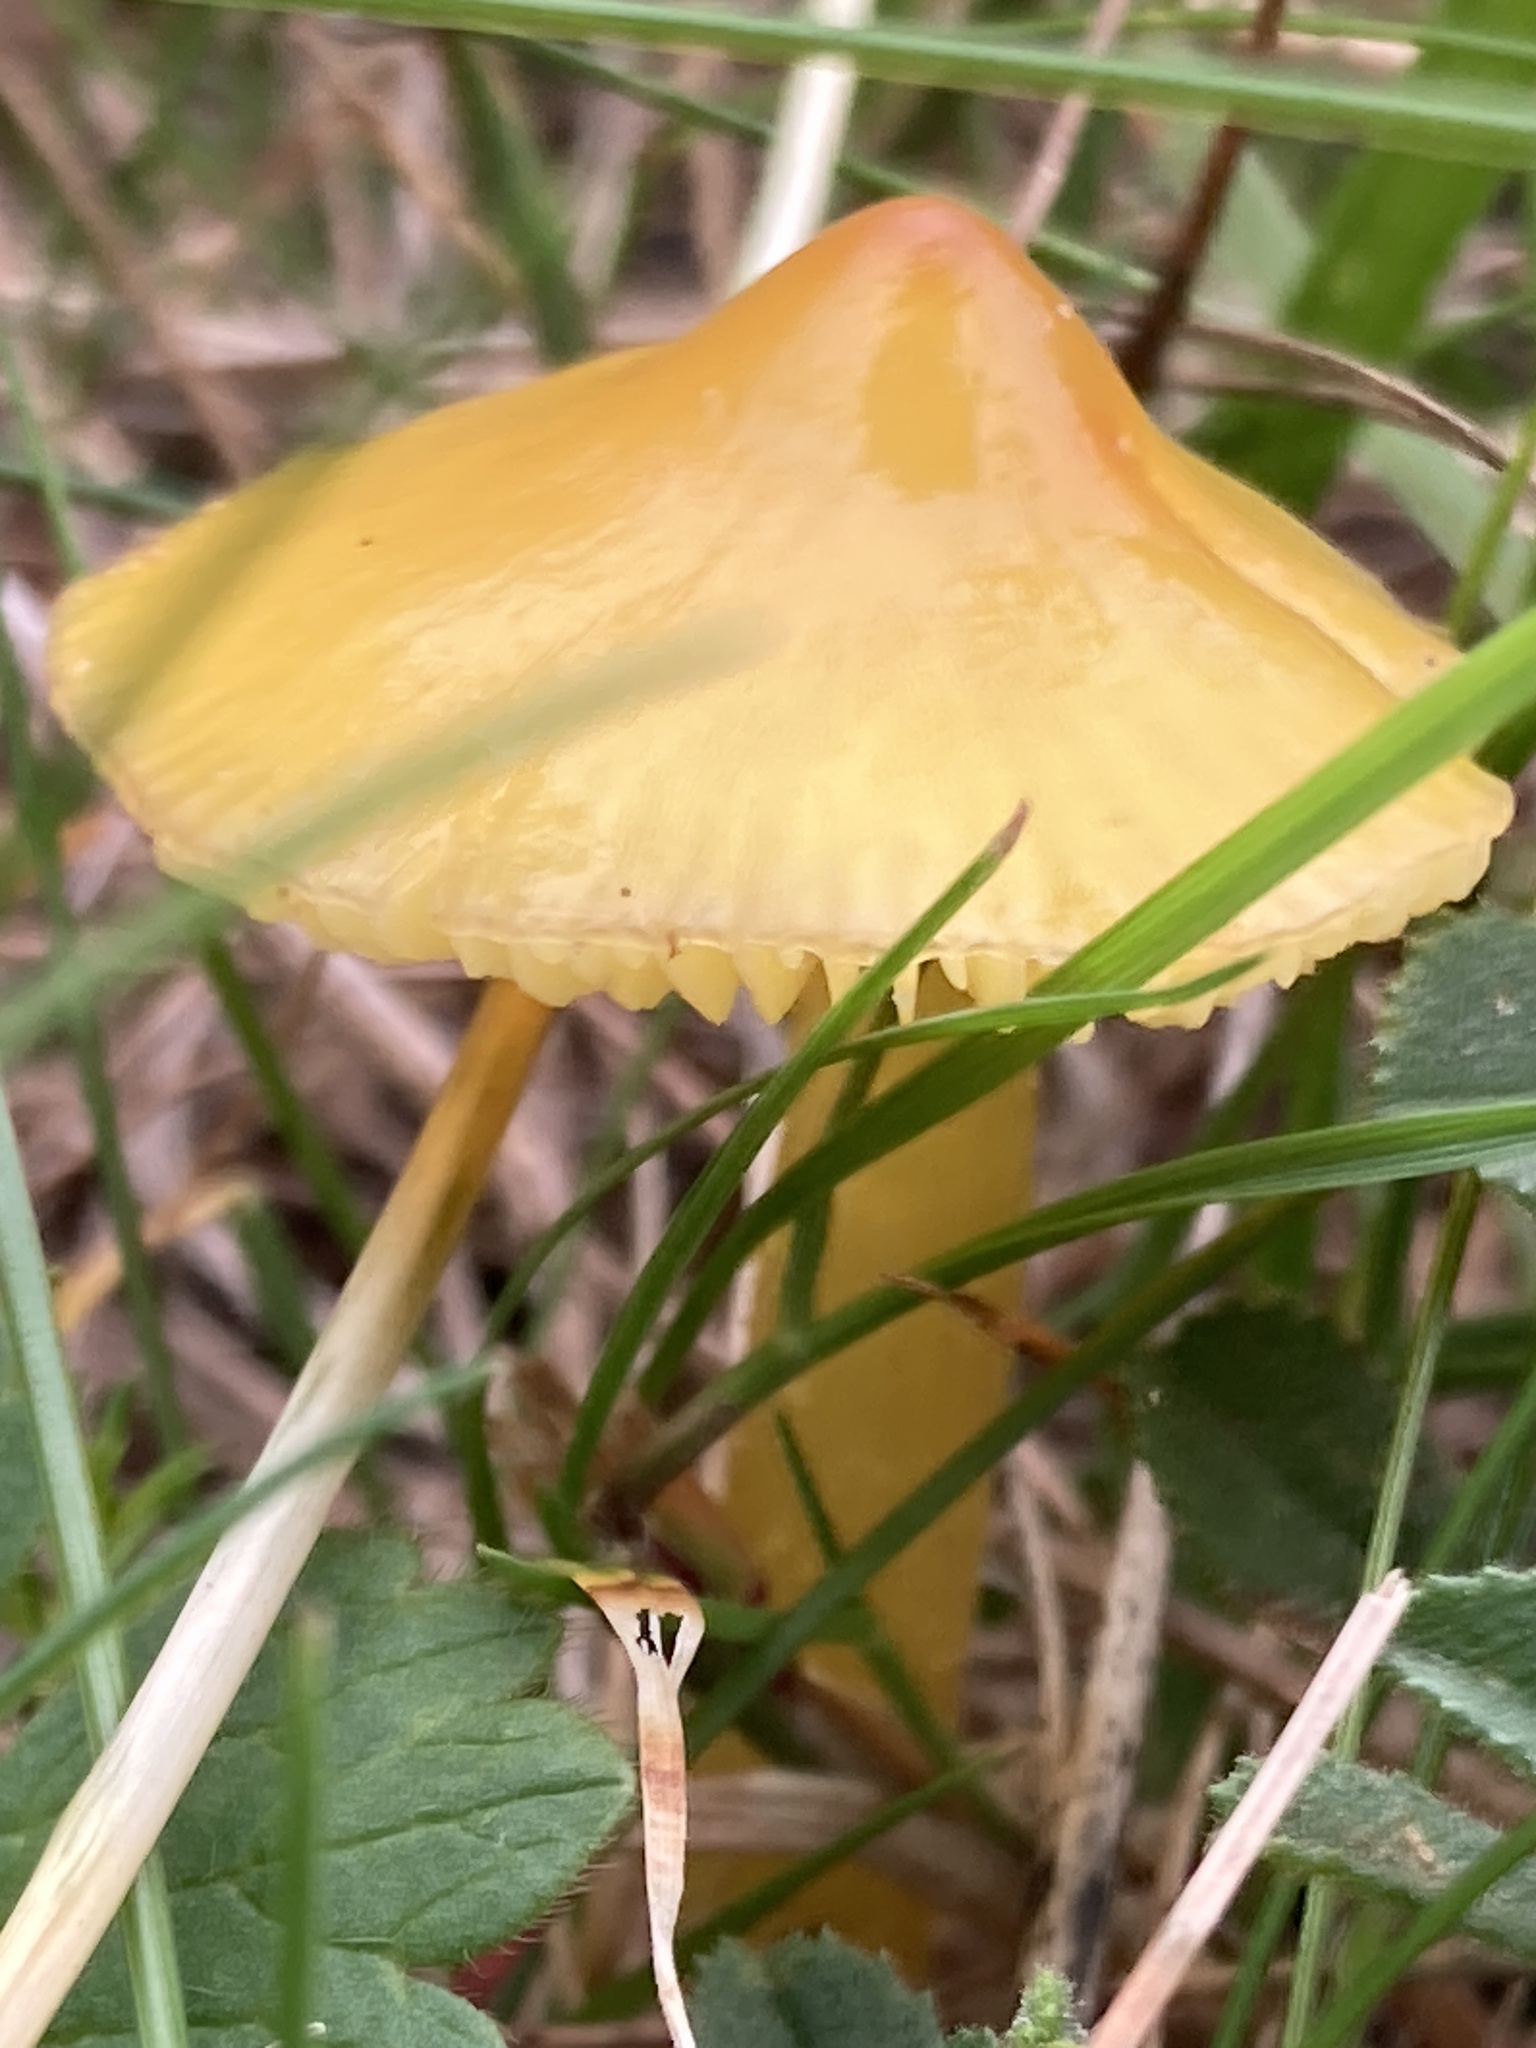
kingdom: Fungi
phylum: Basidiomycota
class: Agaricomycetes
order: Agaricales
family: Hygrophoraceae
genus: Hygrocybe
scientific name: Hygrocybe acutoconica
